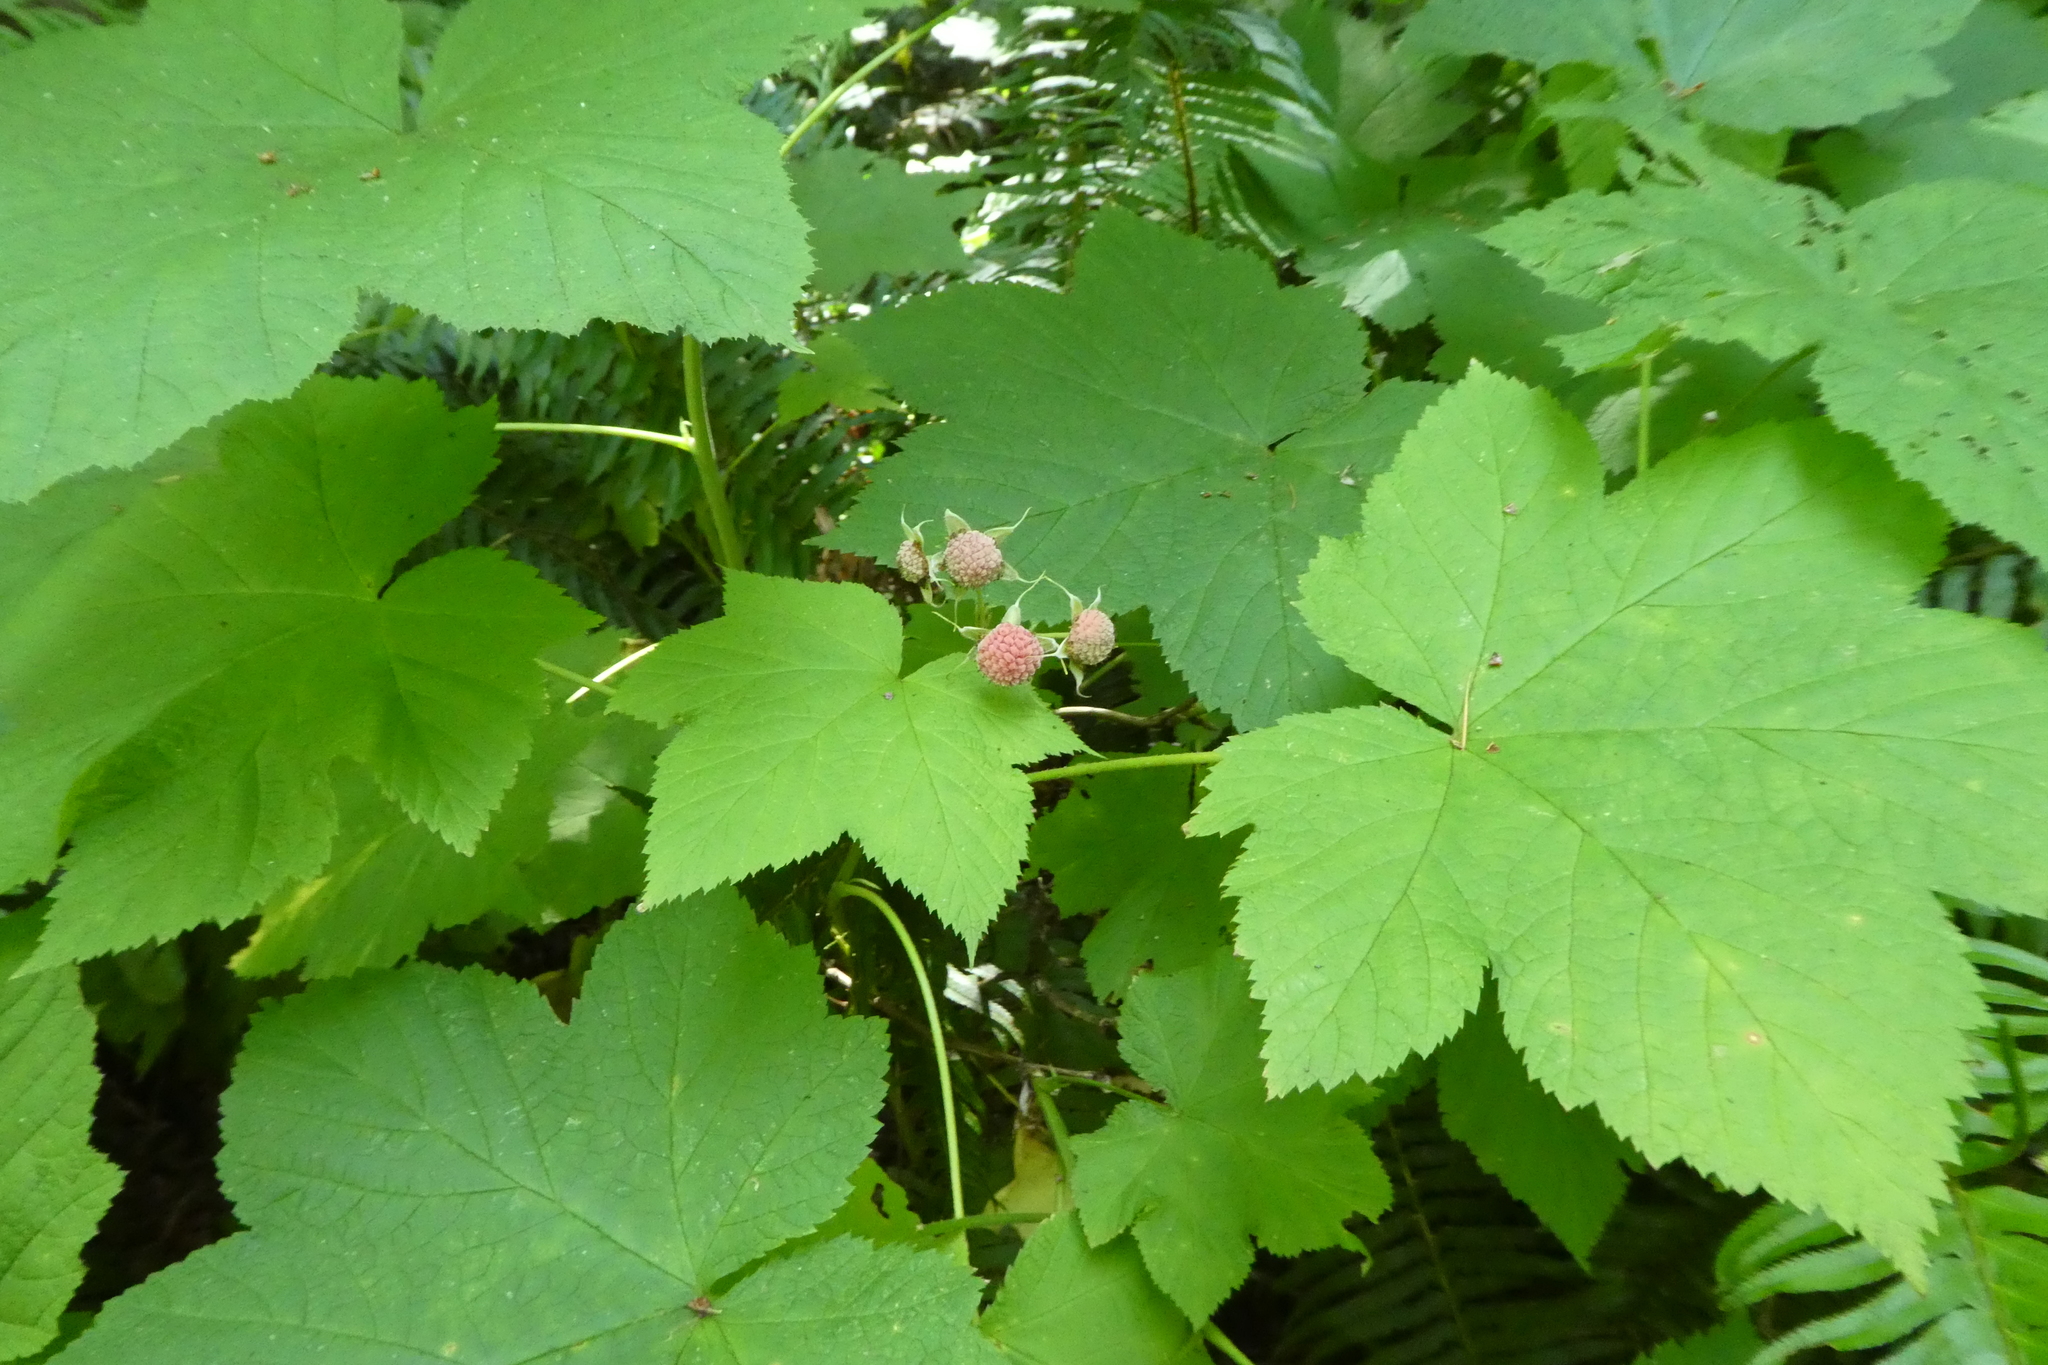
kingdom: Plantae
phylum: Tracheophyta
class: Magnoliopsida
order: Rosales
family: Rosaceae
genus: Rubus
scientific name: Rubus parviflorus
